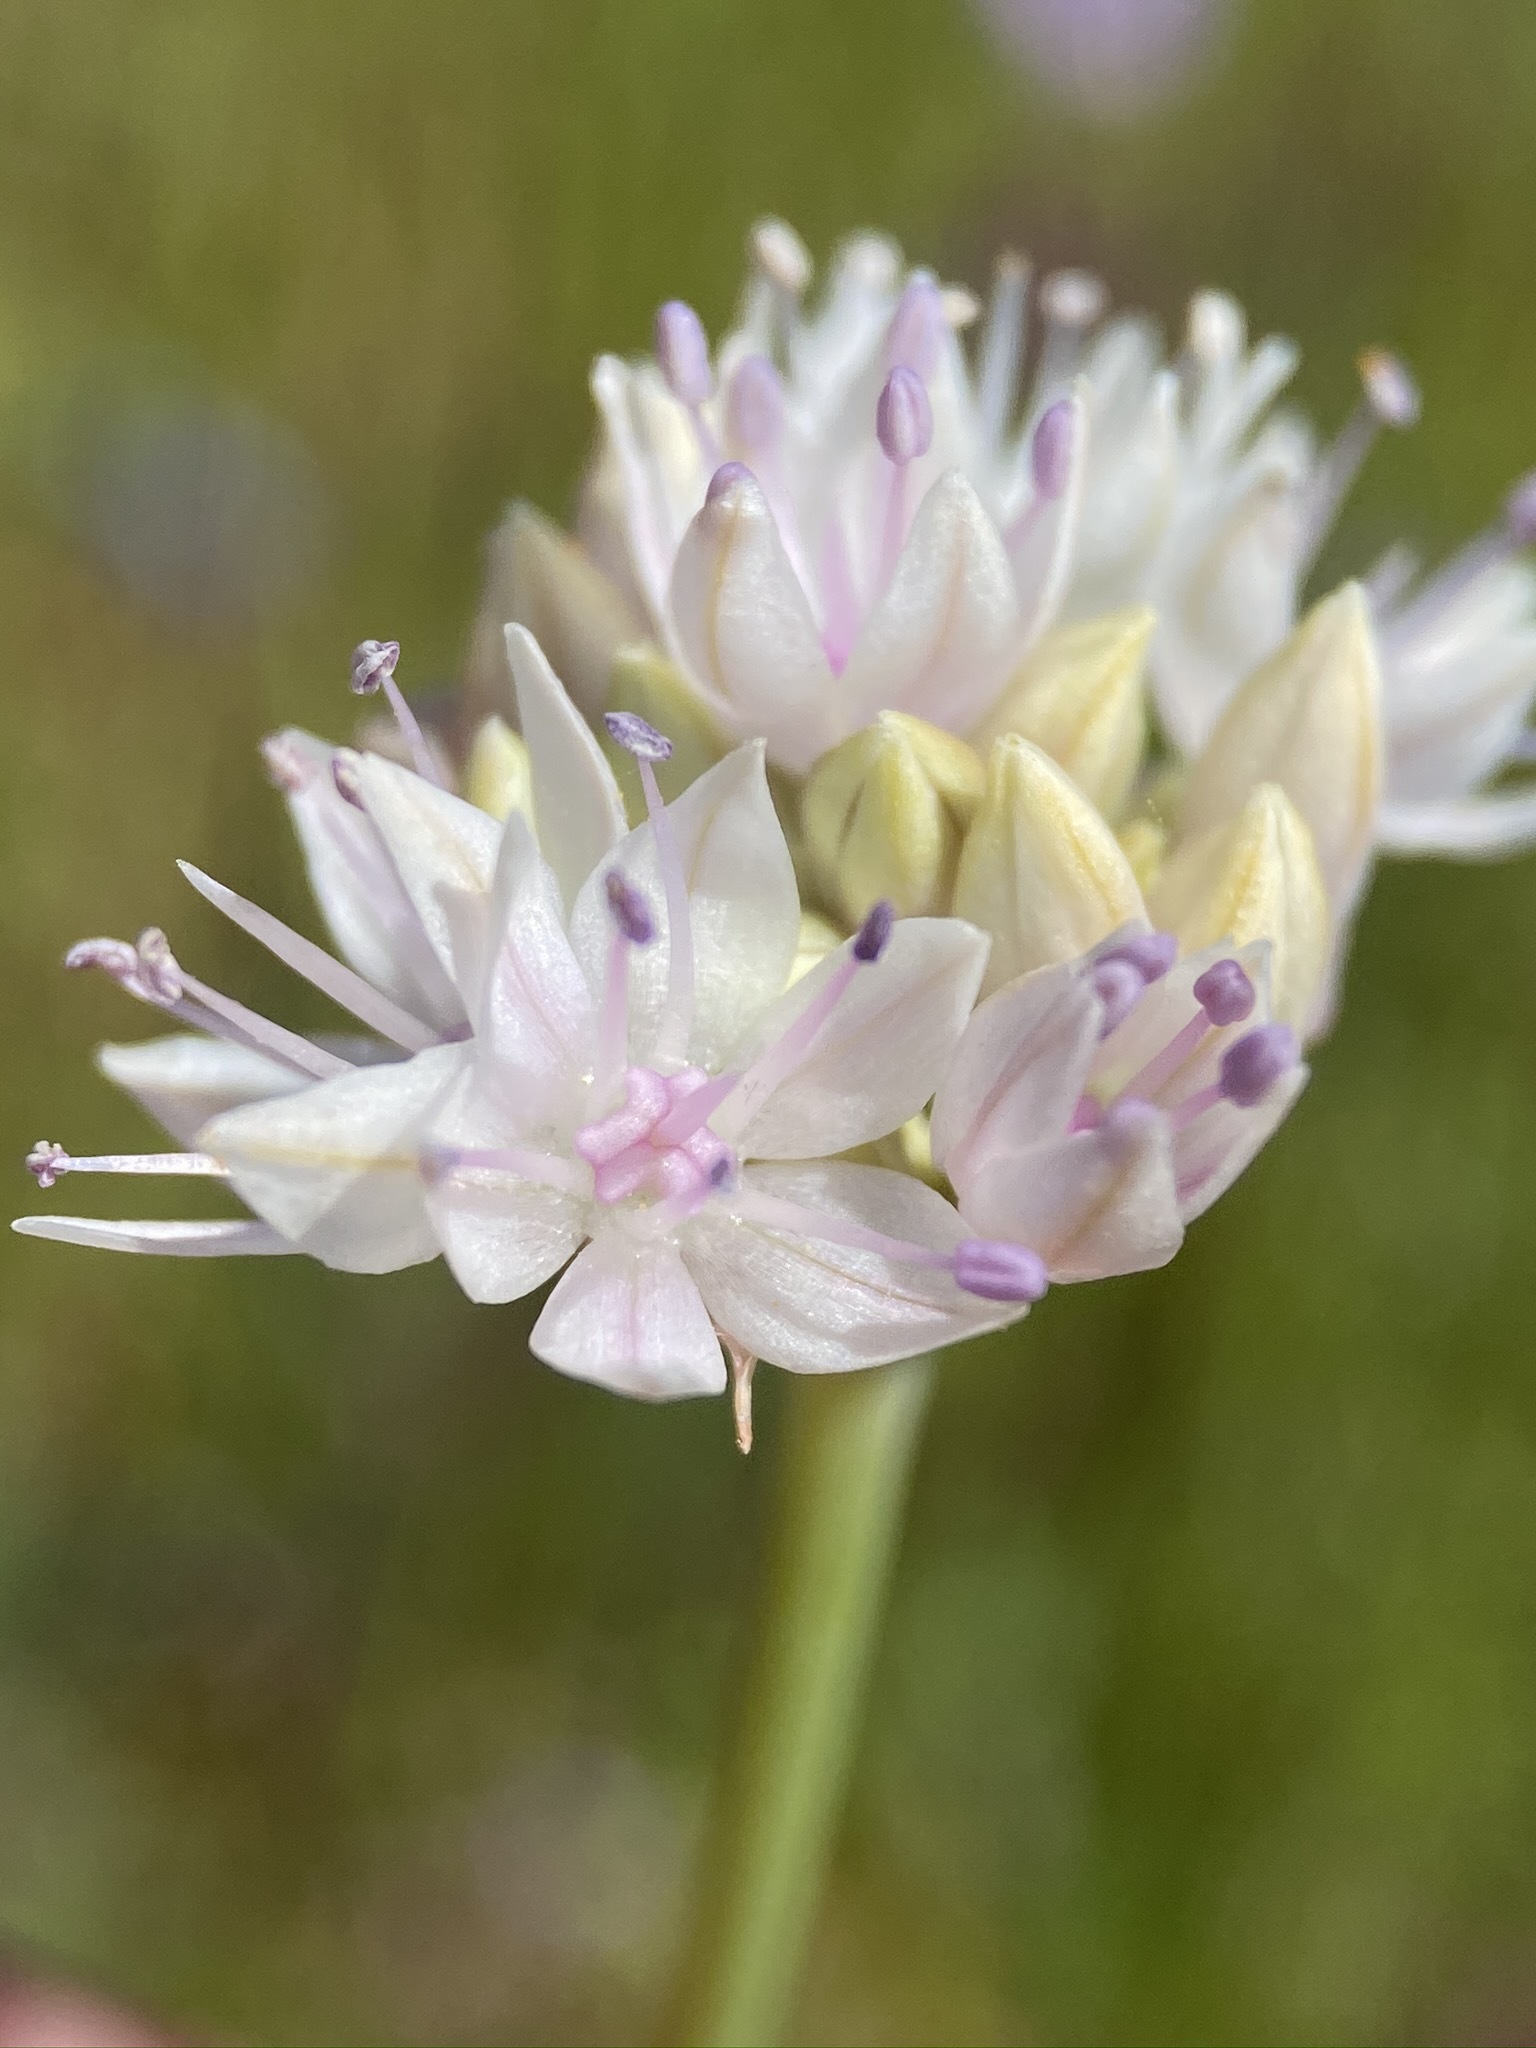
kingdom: Plantae
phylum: Tracheophyta
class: Liliopsida
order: Asparagales
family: Amaryllidaceae
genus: Allium
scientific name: Allium amplectens
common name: Narrow-leaved onion
